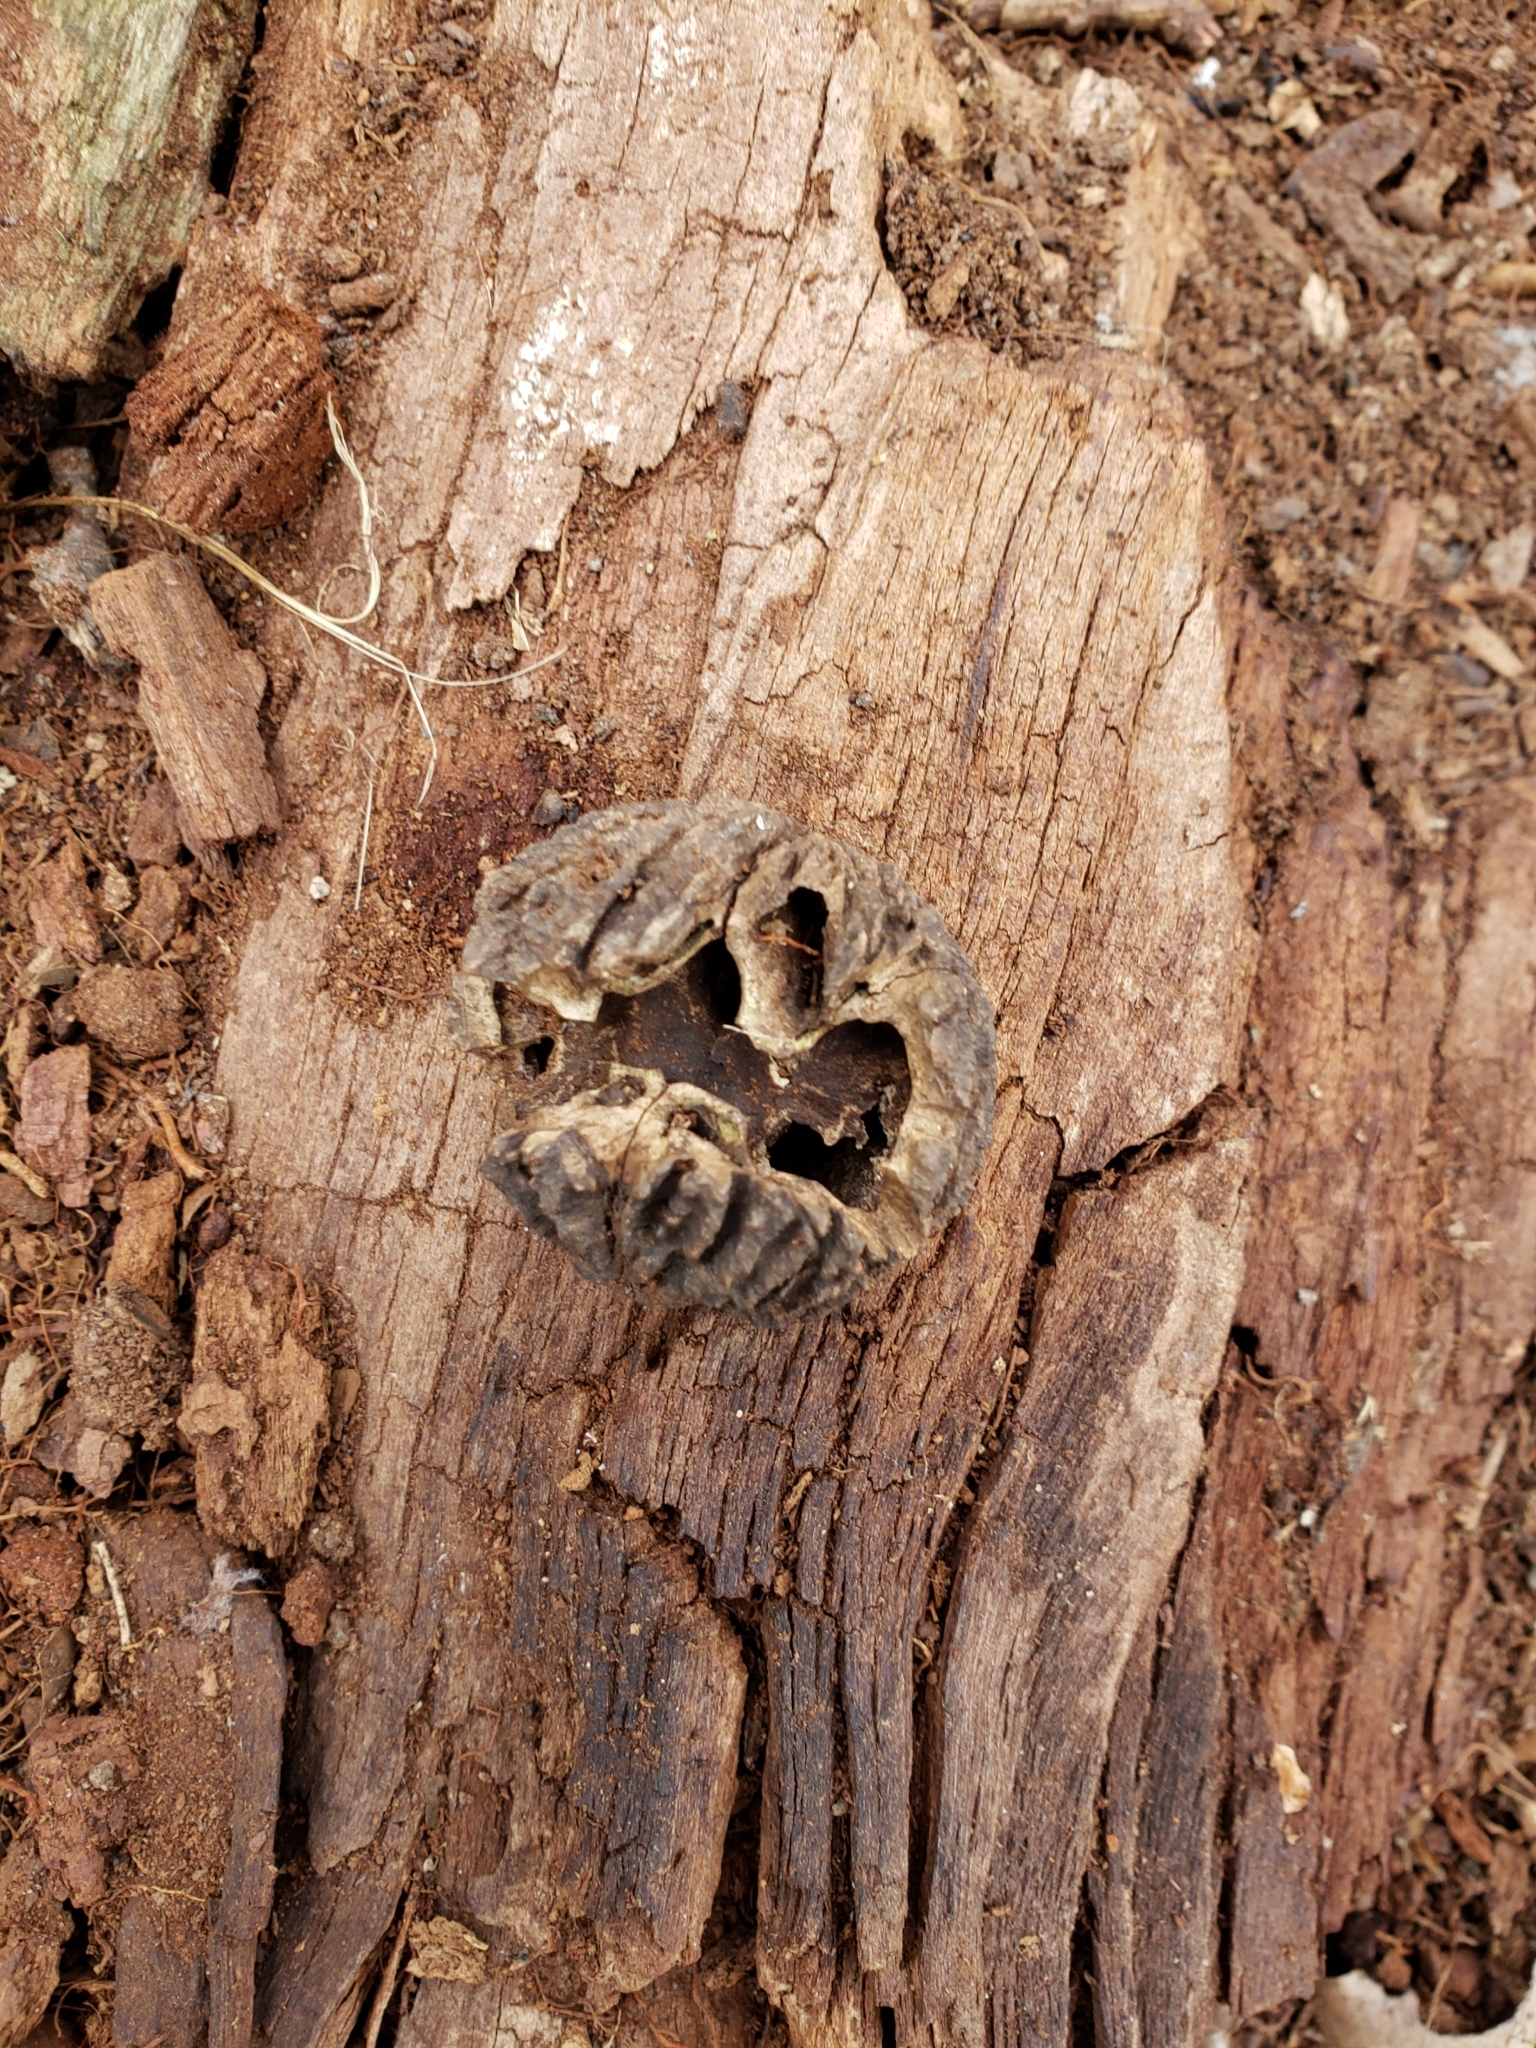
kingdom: Plantae
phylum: Tracheophyta
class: Magnoliopsida
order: Fagales
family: Juglandaceae
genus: Juglans
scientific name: Juglans nigra
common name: Black walnut
